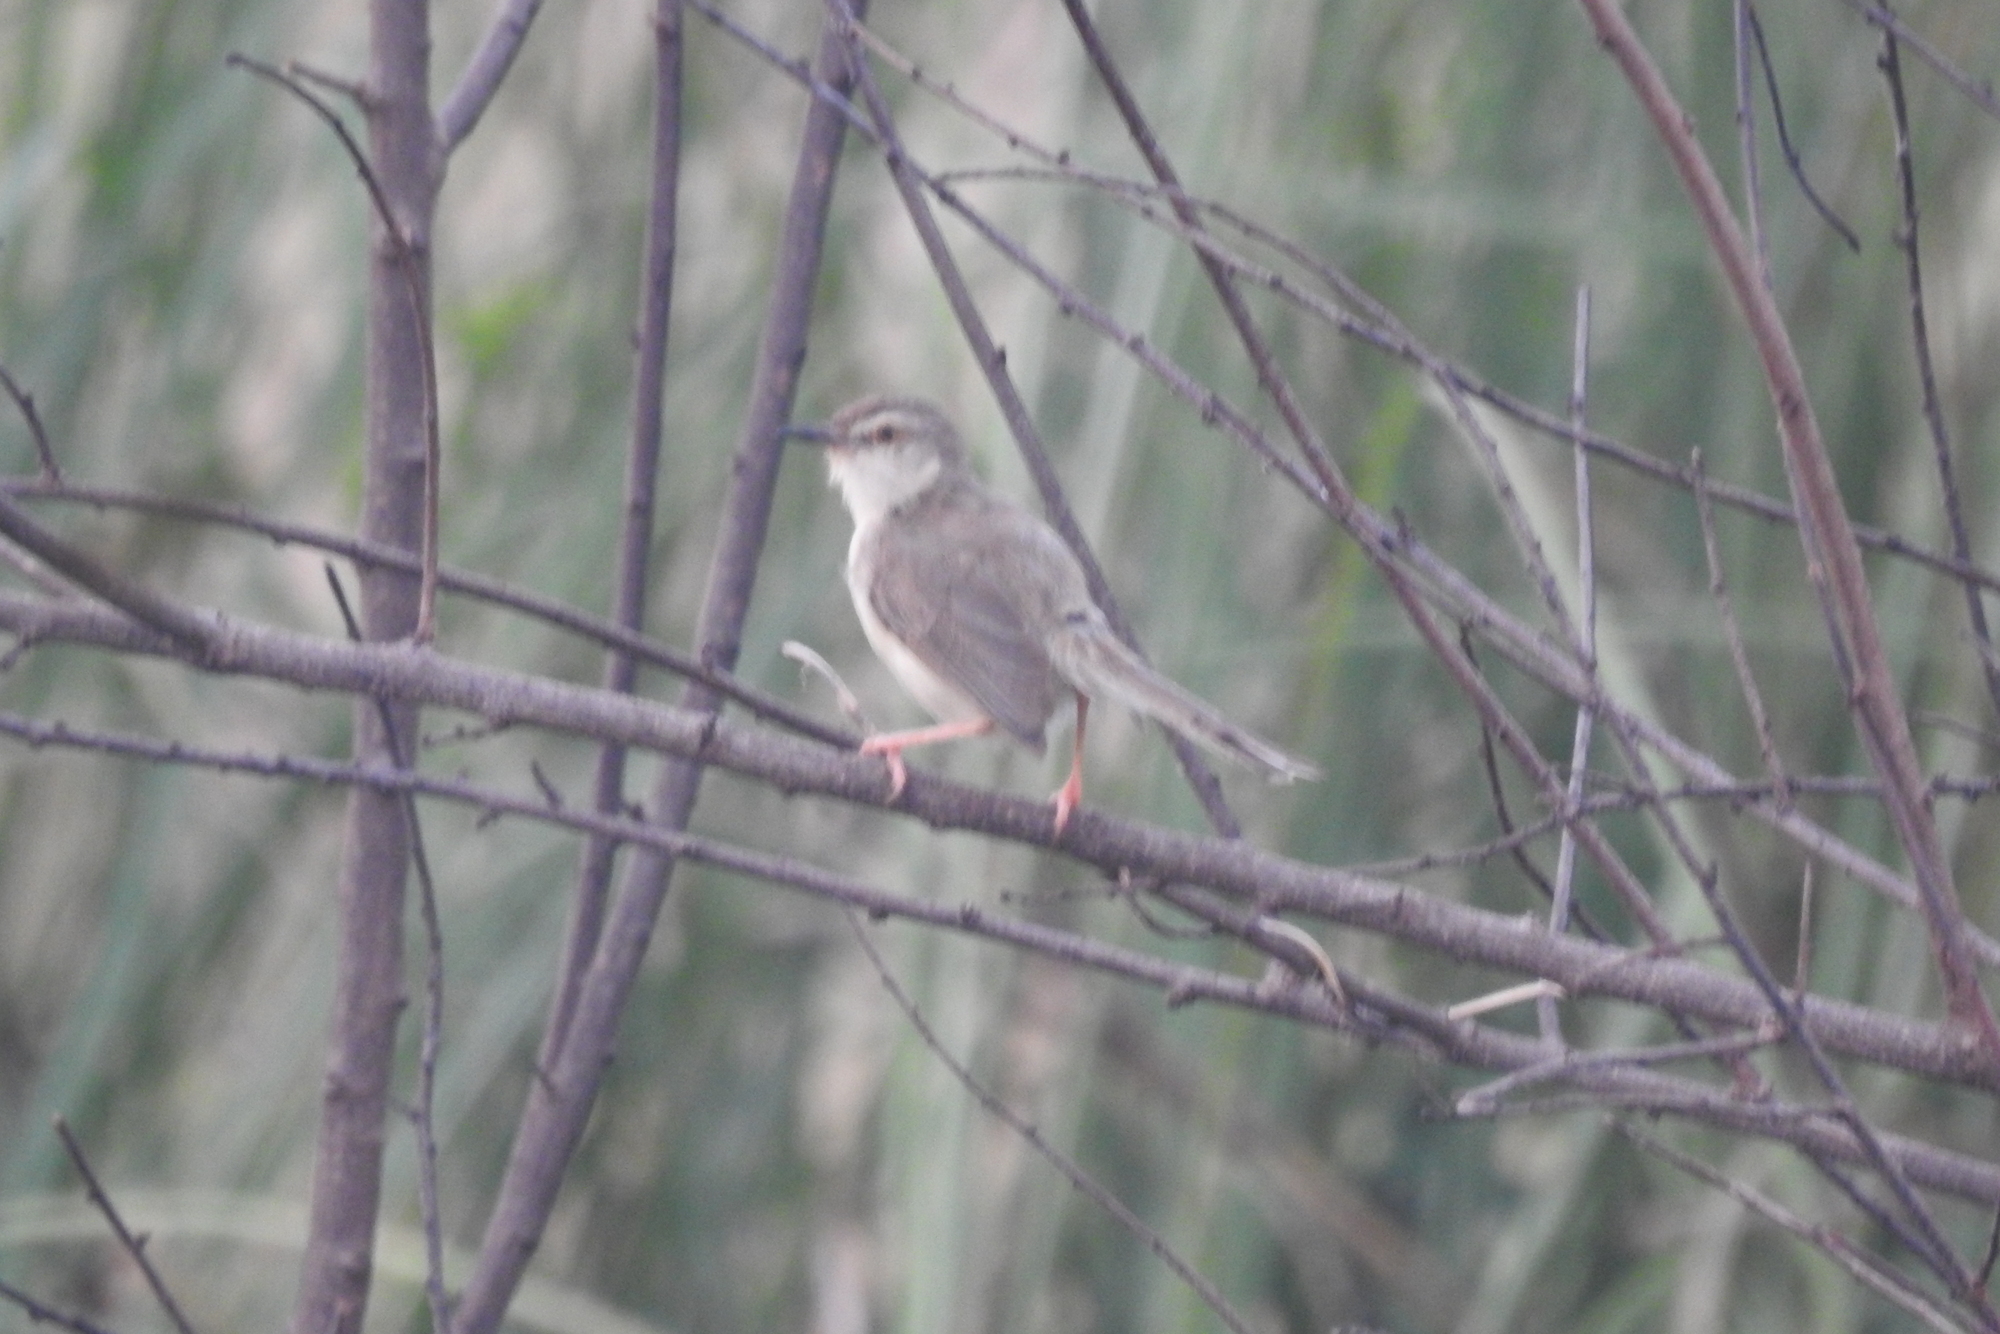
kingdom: Animalia
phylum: Chordata
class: Aves
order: Passeriformes
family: Cisticolidae
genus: Prinia
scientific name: Prinia inornata
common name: Plain prinia
